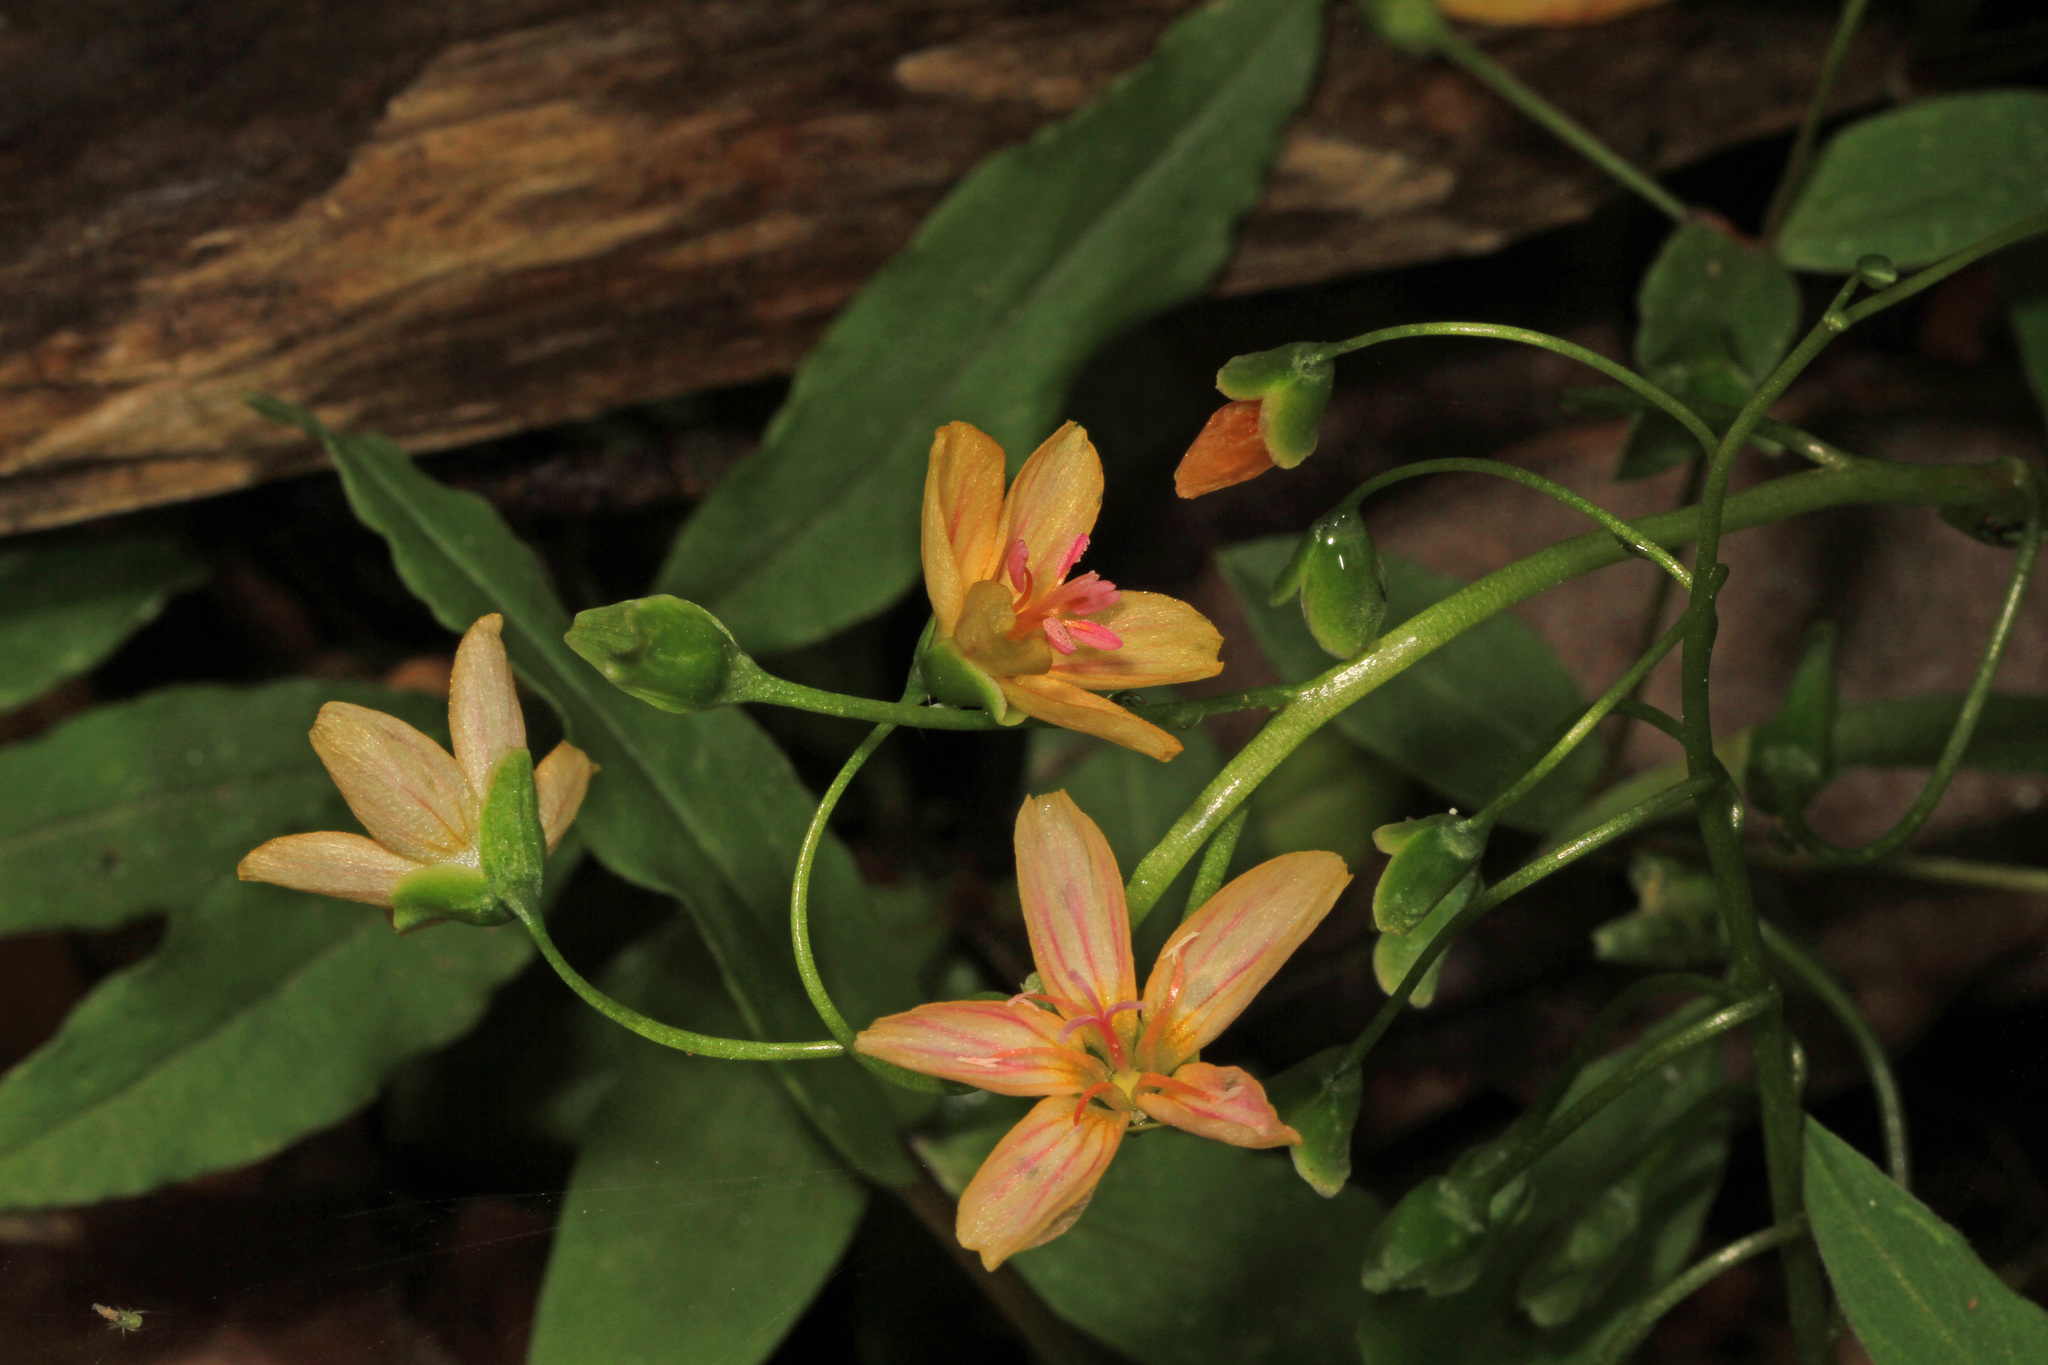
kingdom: Plantae
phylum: Tracheophyta
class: Magnoliopsida
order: Caryophyllales
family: Montiaceae
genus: Claytonia
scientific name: Claytonia virginica
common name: Virginia springbeauty
